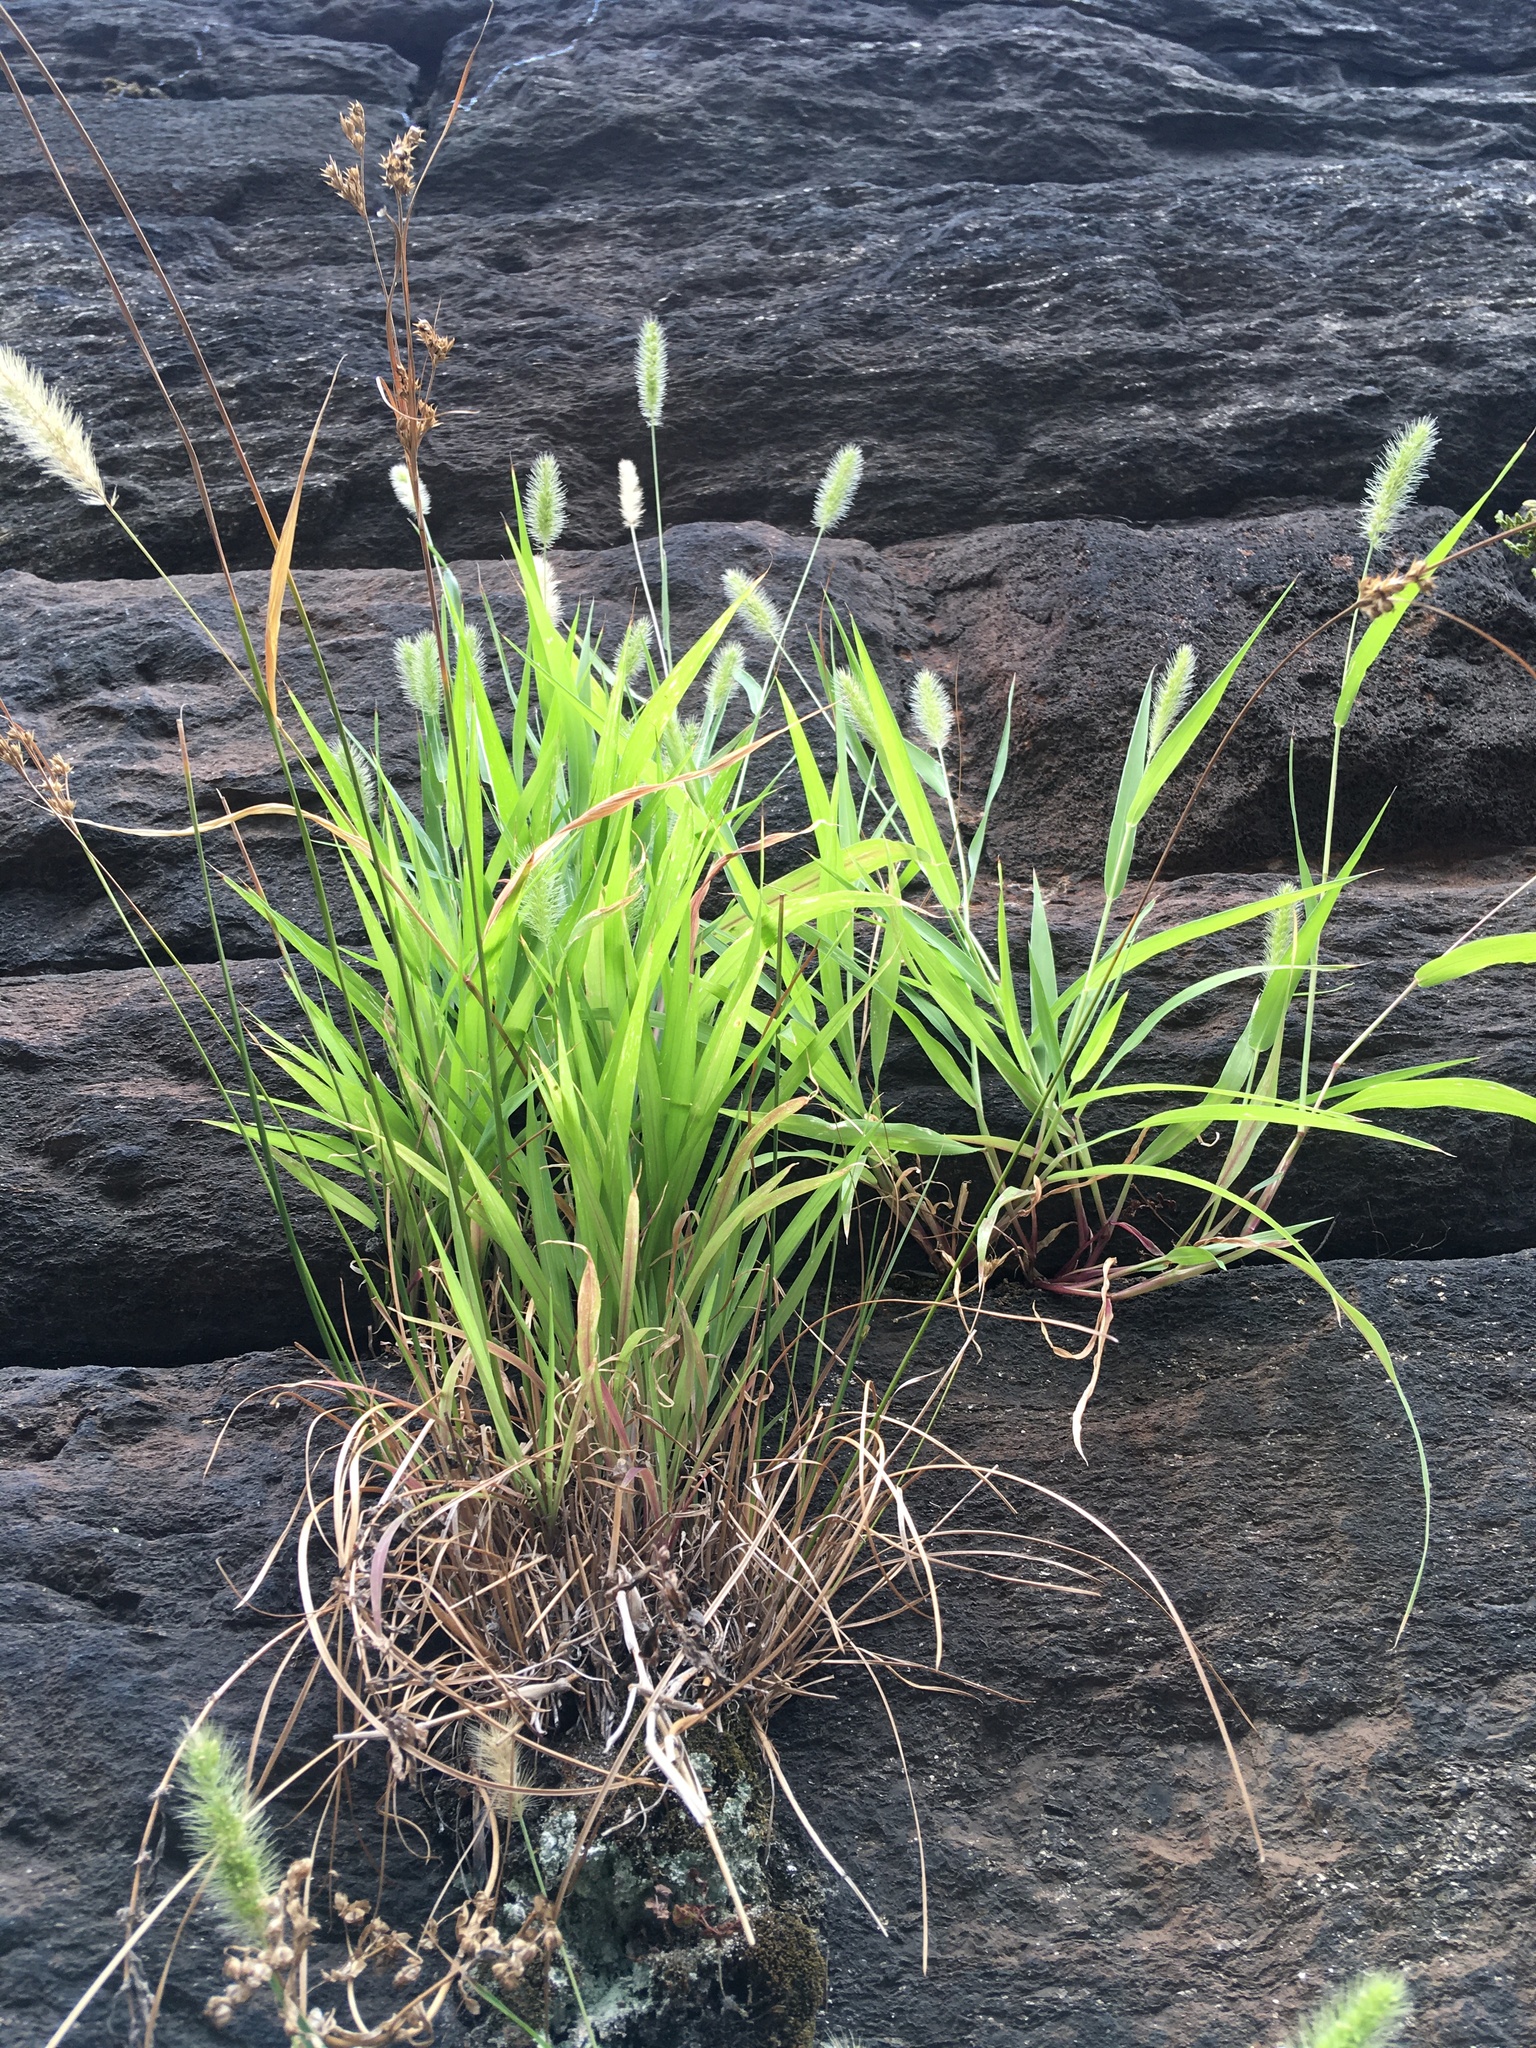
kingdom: Plantae
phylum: Tracheophyta
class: Liliopsida
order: Poales
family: Poaceae
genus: Setaria
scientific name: Setaria viridis
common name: Green bristlegrass
